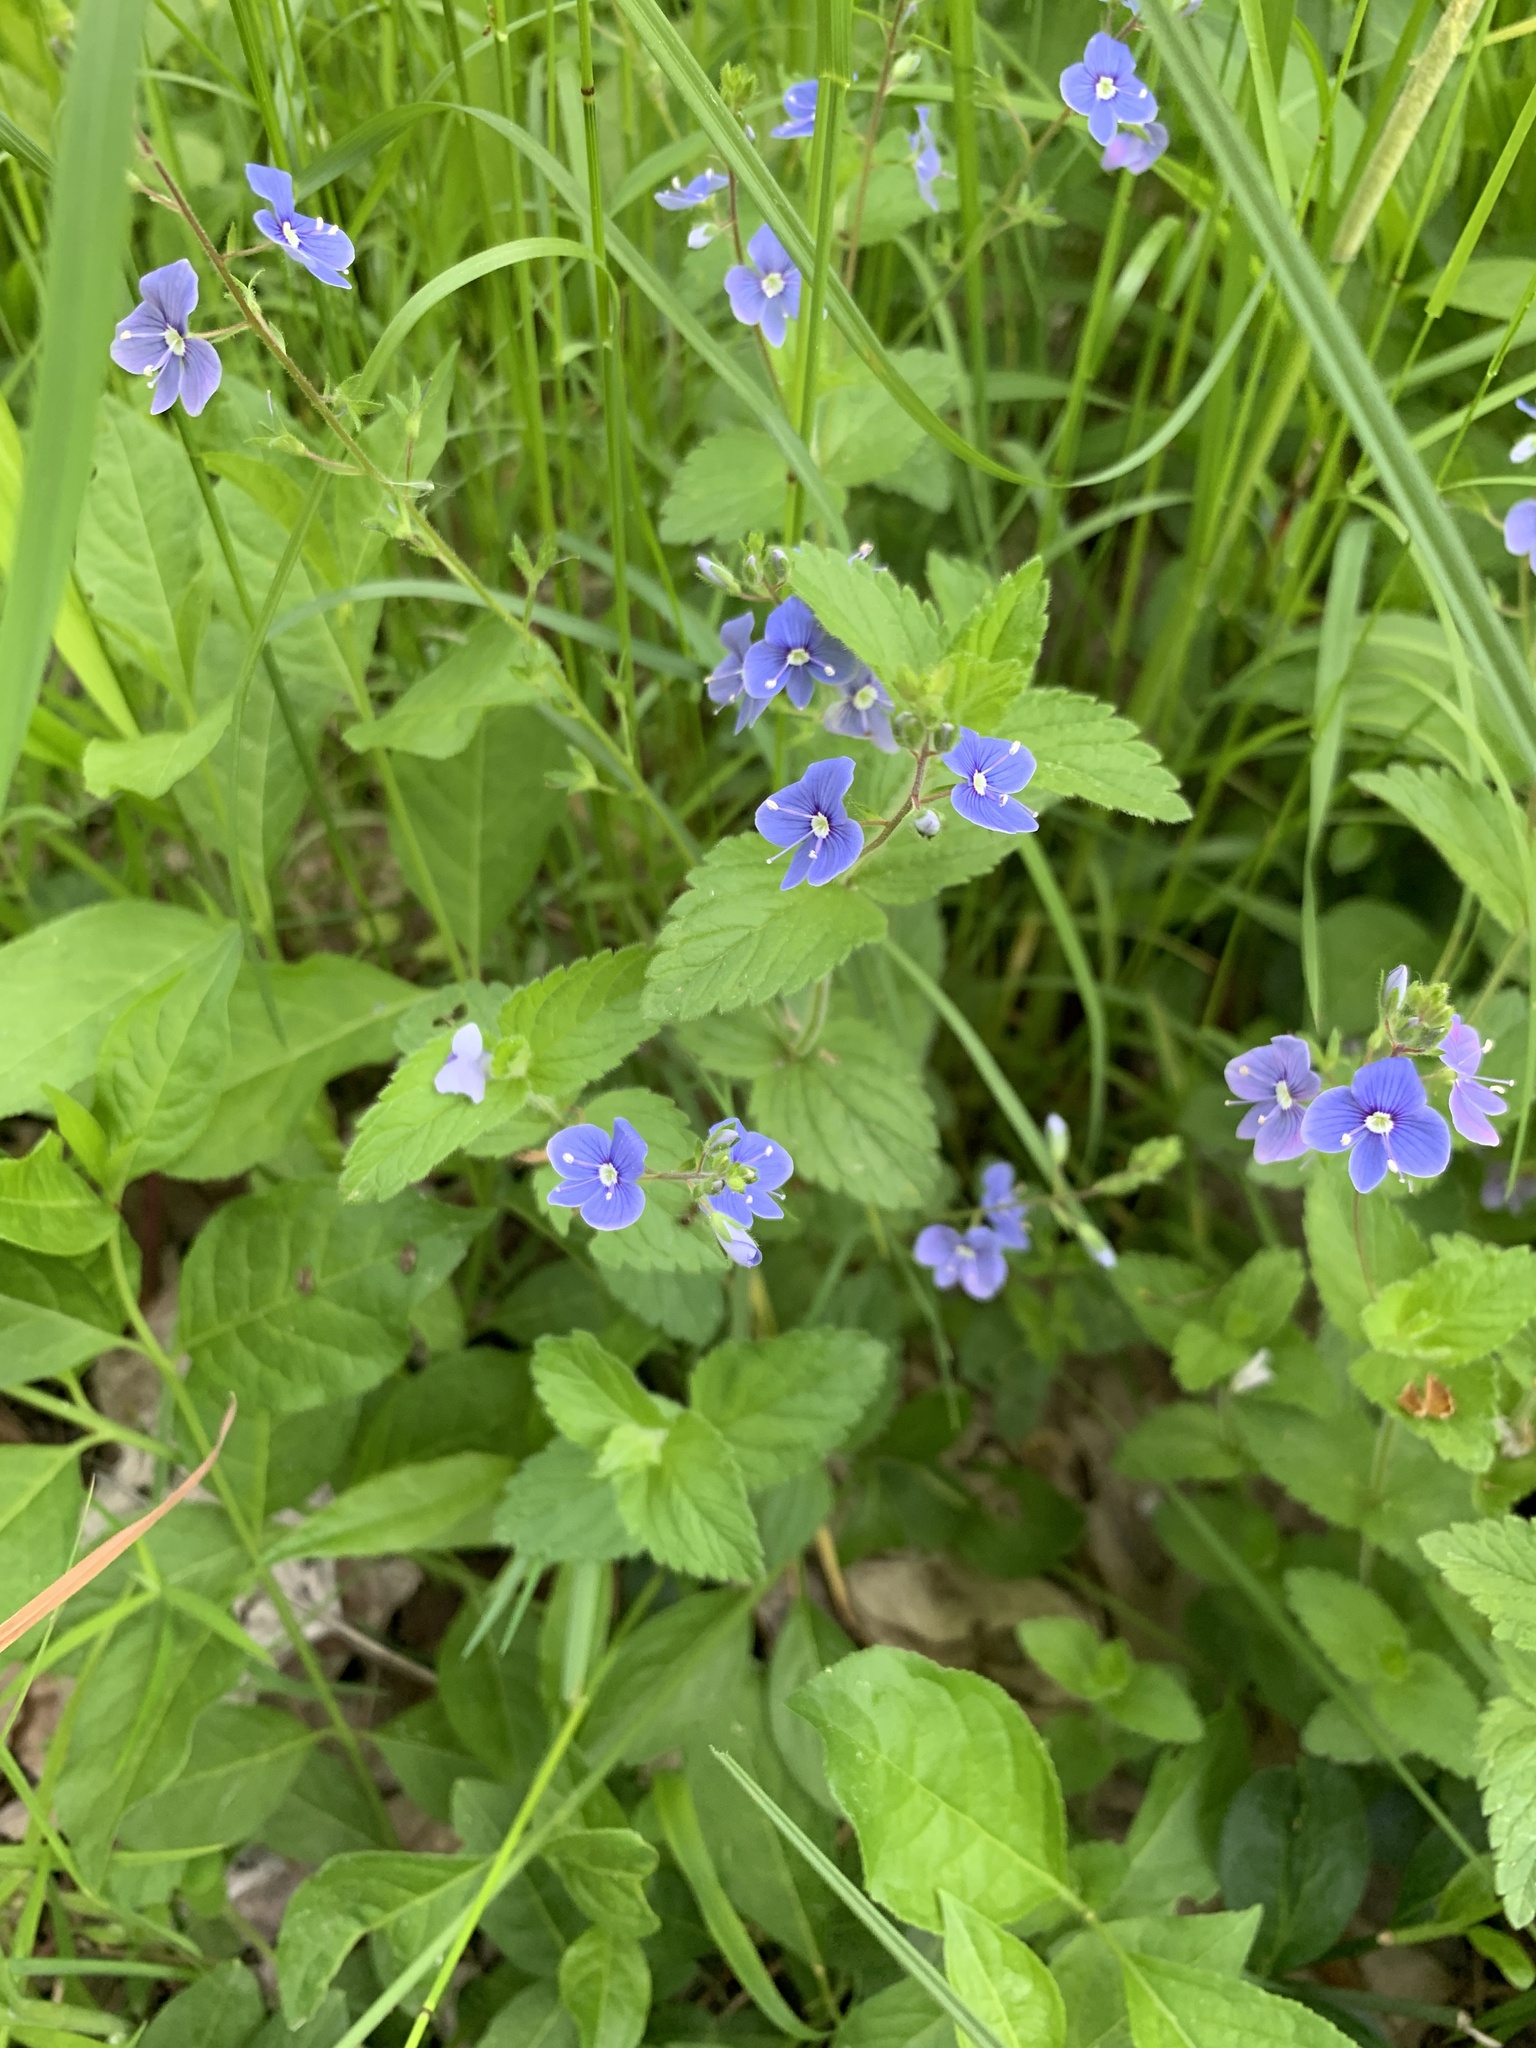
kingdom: Plantae
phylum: Tracheophyta
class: Magnoliopsida
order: Lamiales
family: Plantaginaceae
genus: Veronica
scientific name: Veronica chamaedrys
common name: Germander speedwell
